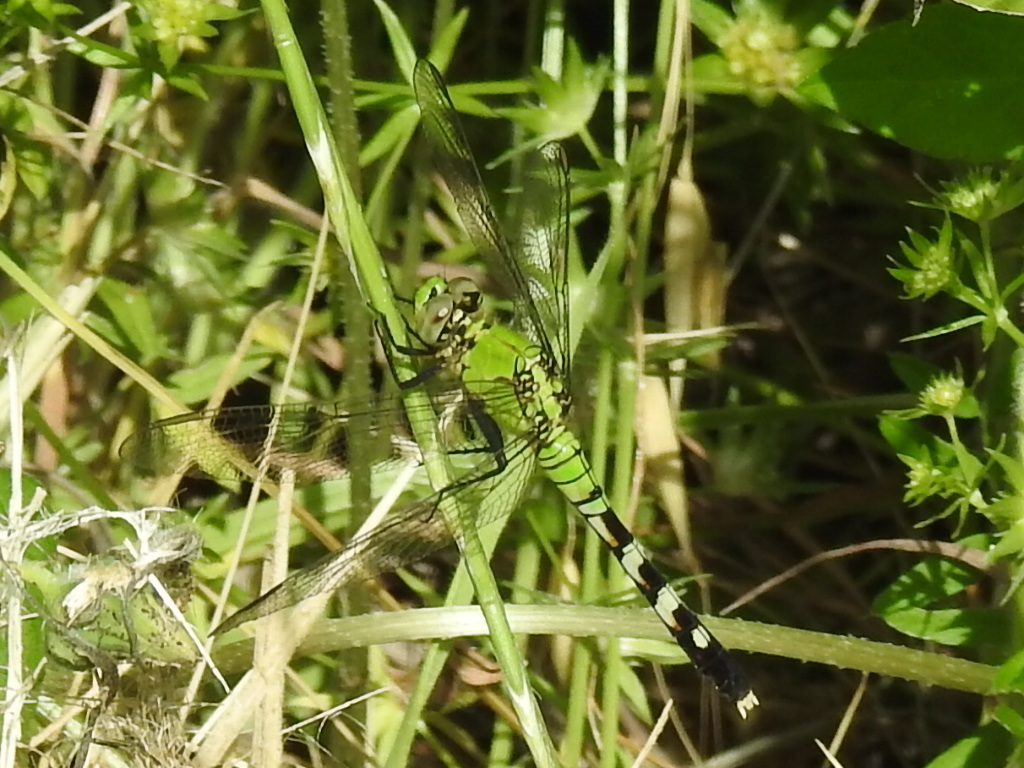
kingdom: Animalia
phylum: Arthropoda
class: Insecta
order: Odonata
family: Libellulidae
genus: Erythemis
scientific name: Erythemis simplicicollis
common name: Eastern pondhawk
